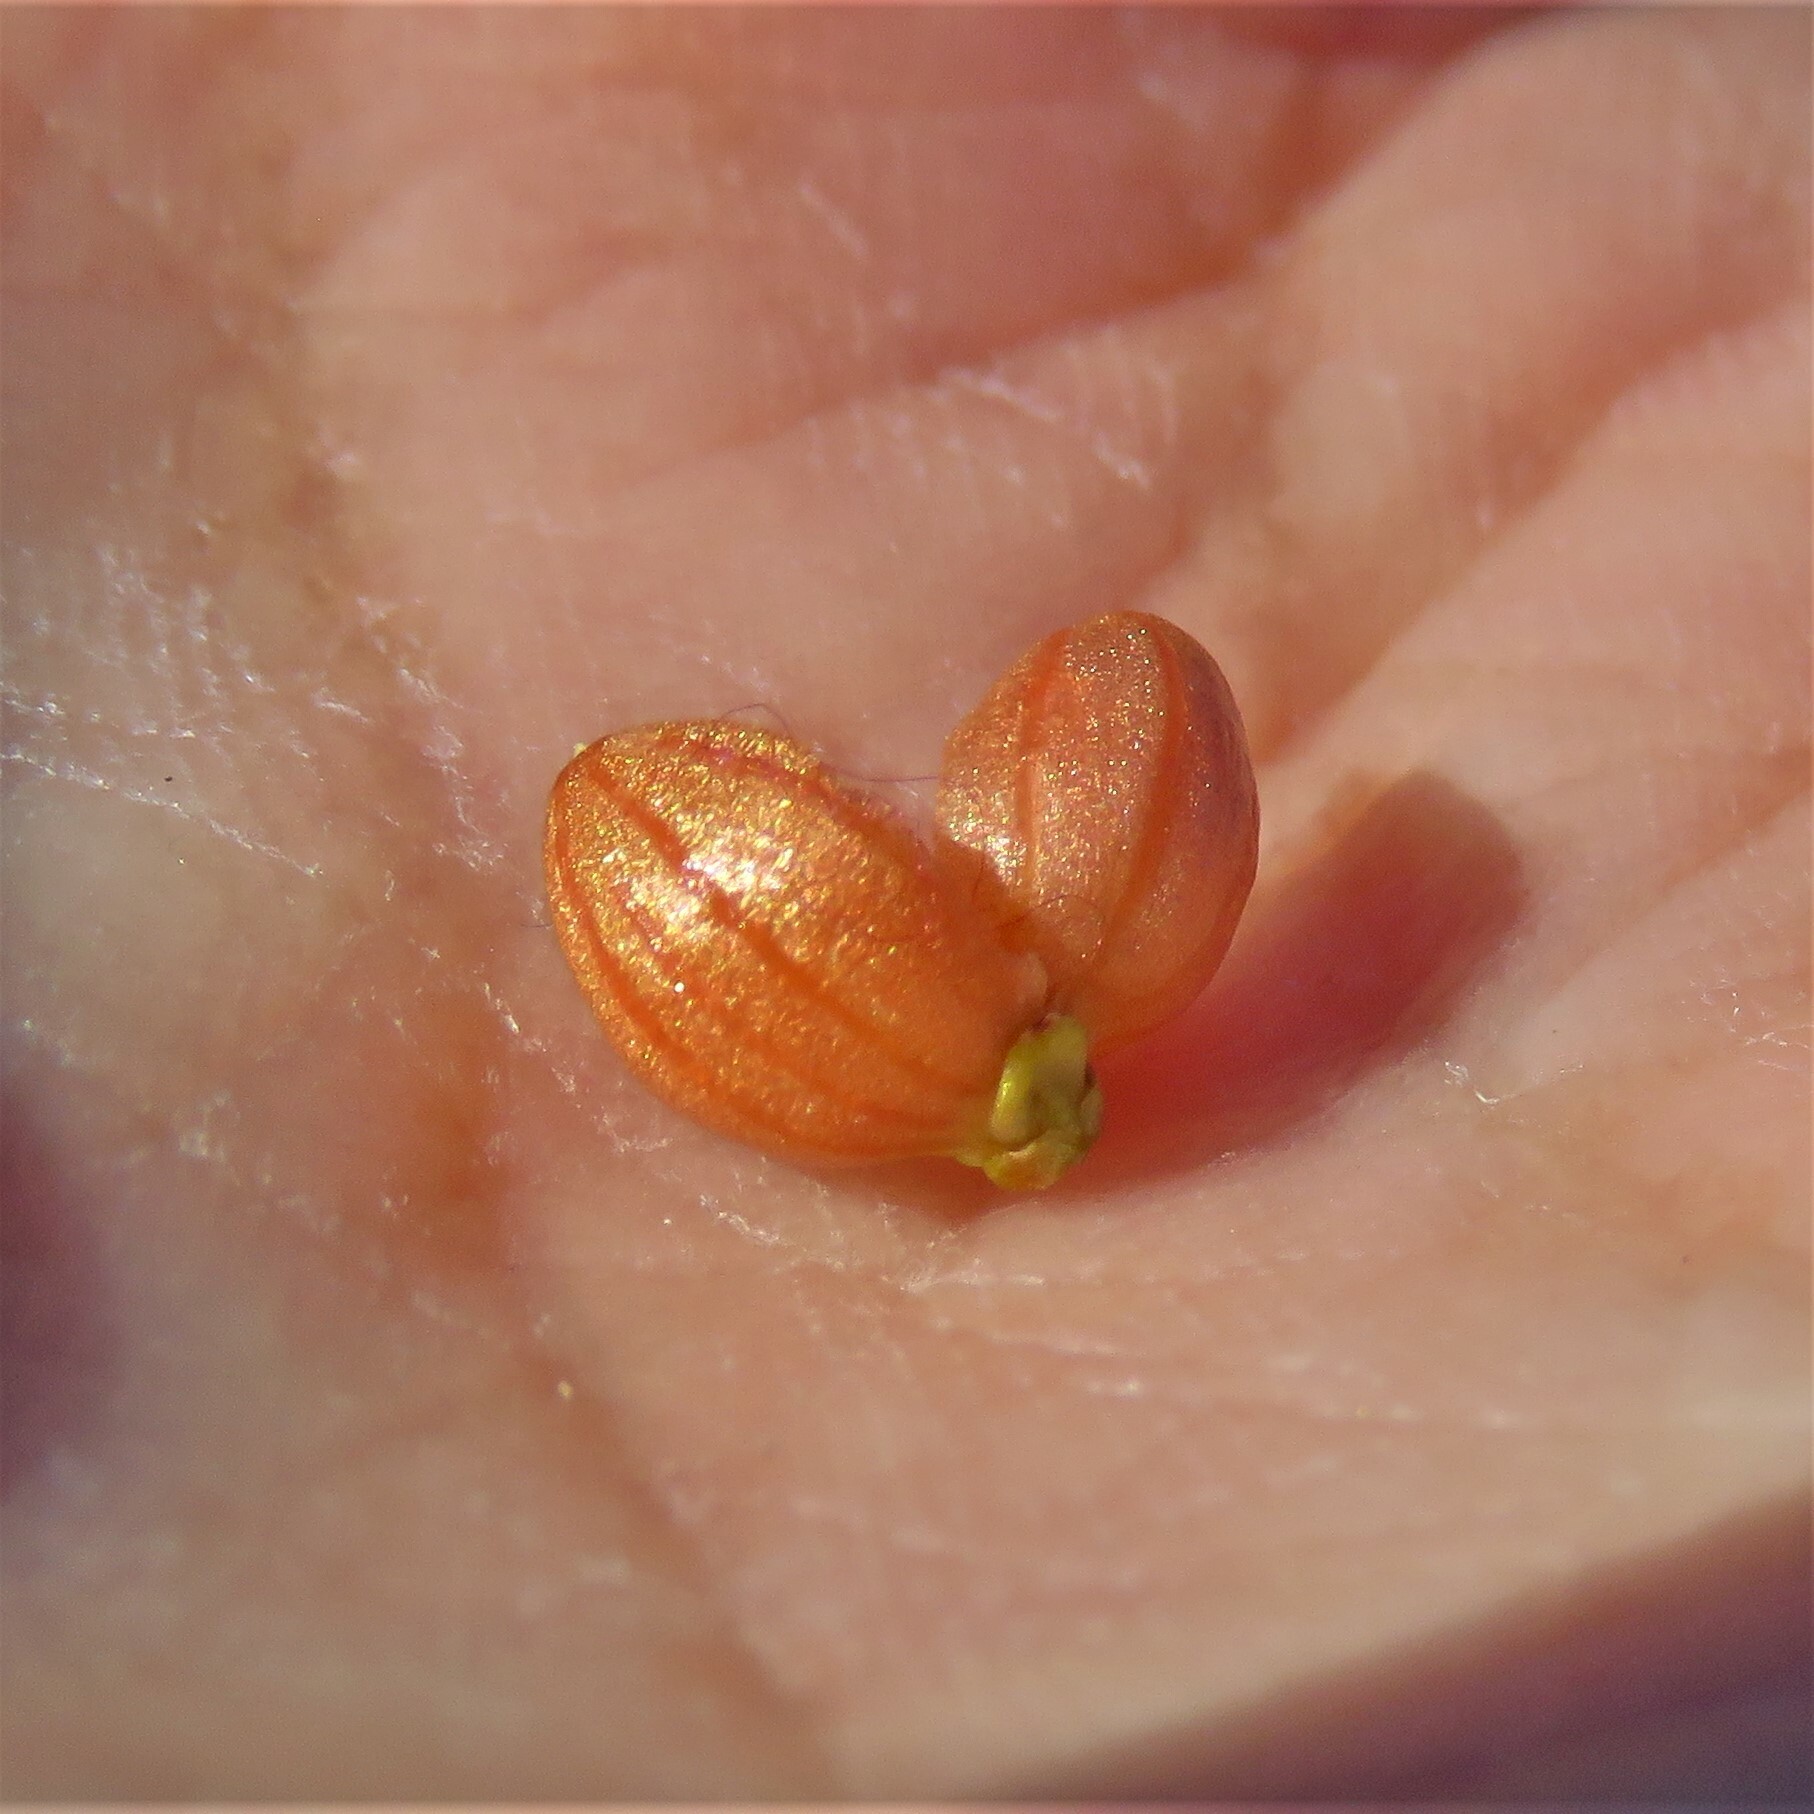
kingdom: Animalia
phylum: Arthropoda
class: Insecta
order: Diptera
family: Cecidomyiidae
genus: Walshomyia
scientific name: Walshomyia texana
